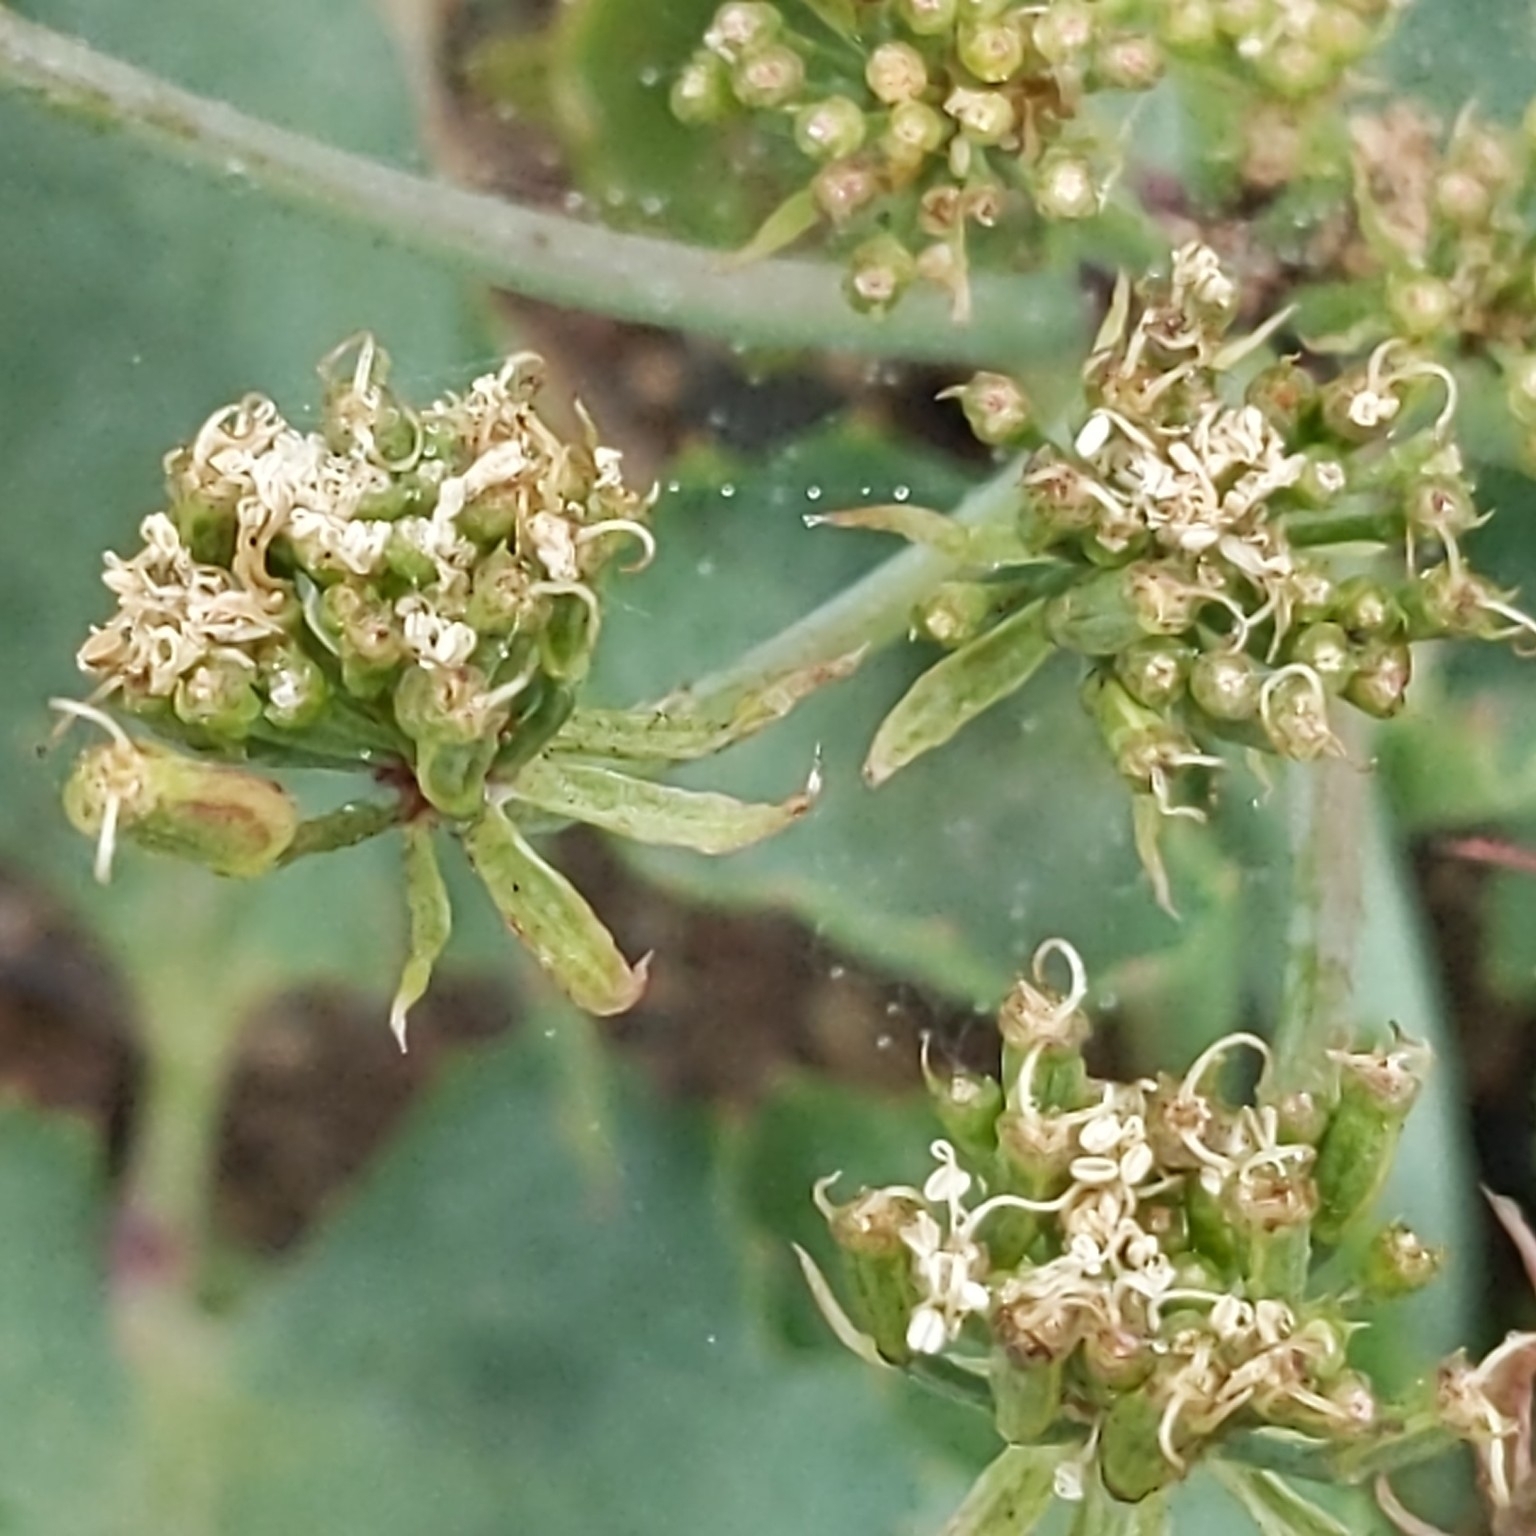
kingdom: Plantae
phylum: Tracheophyta
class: Magnoliopsida
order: Apiales
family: Apiaceae
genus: Lomatium
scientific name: Lomatium lucidum
